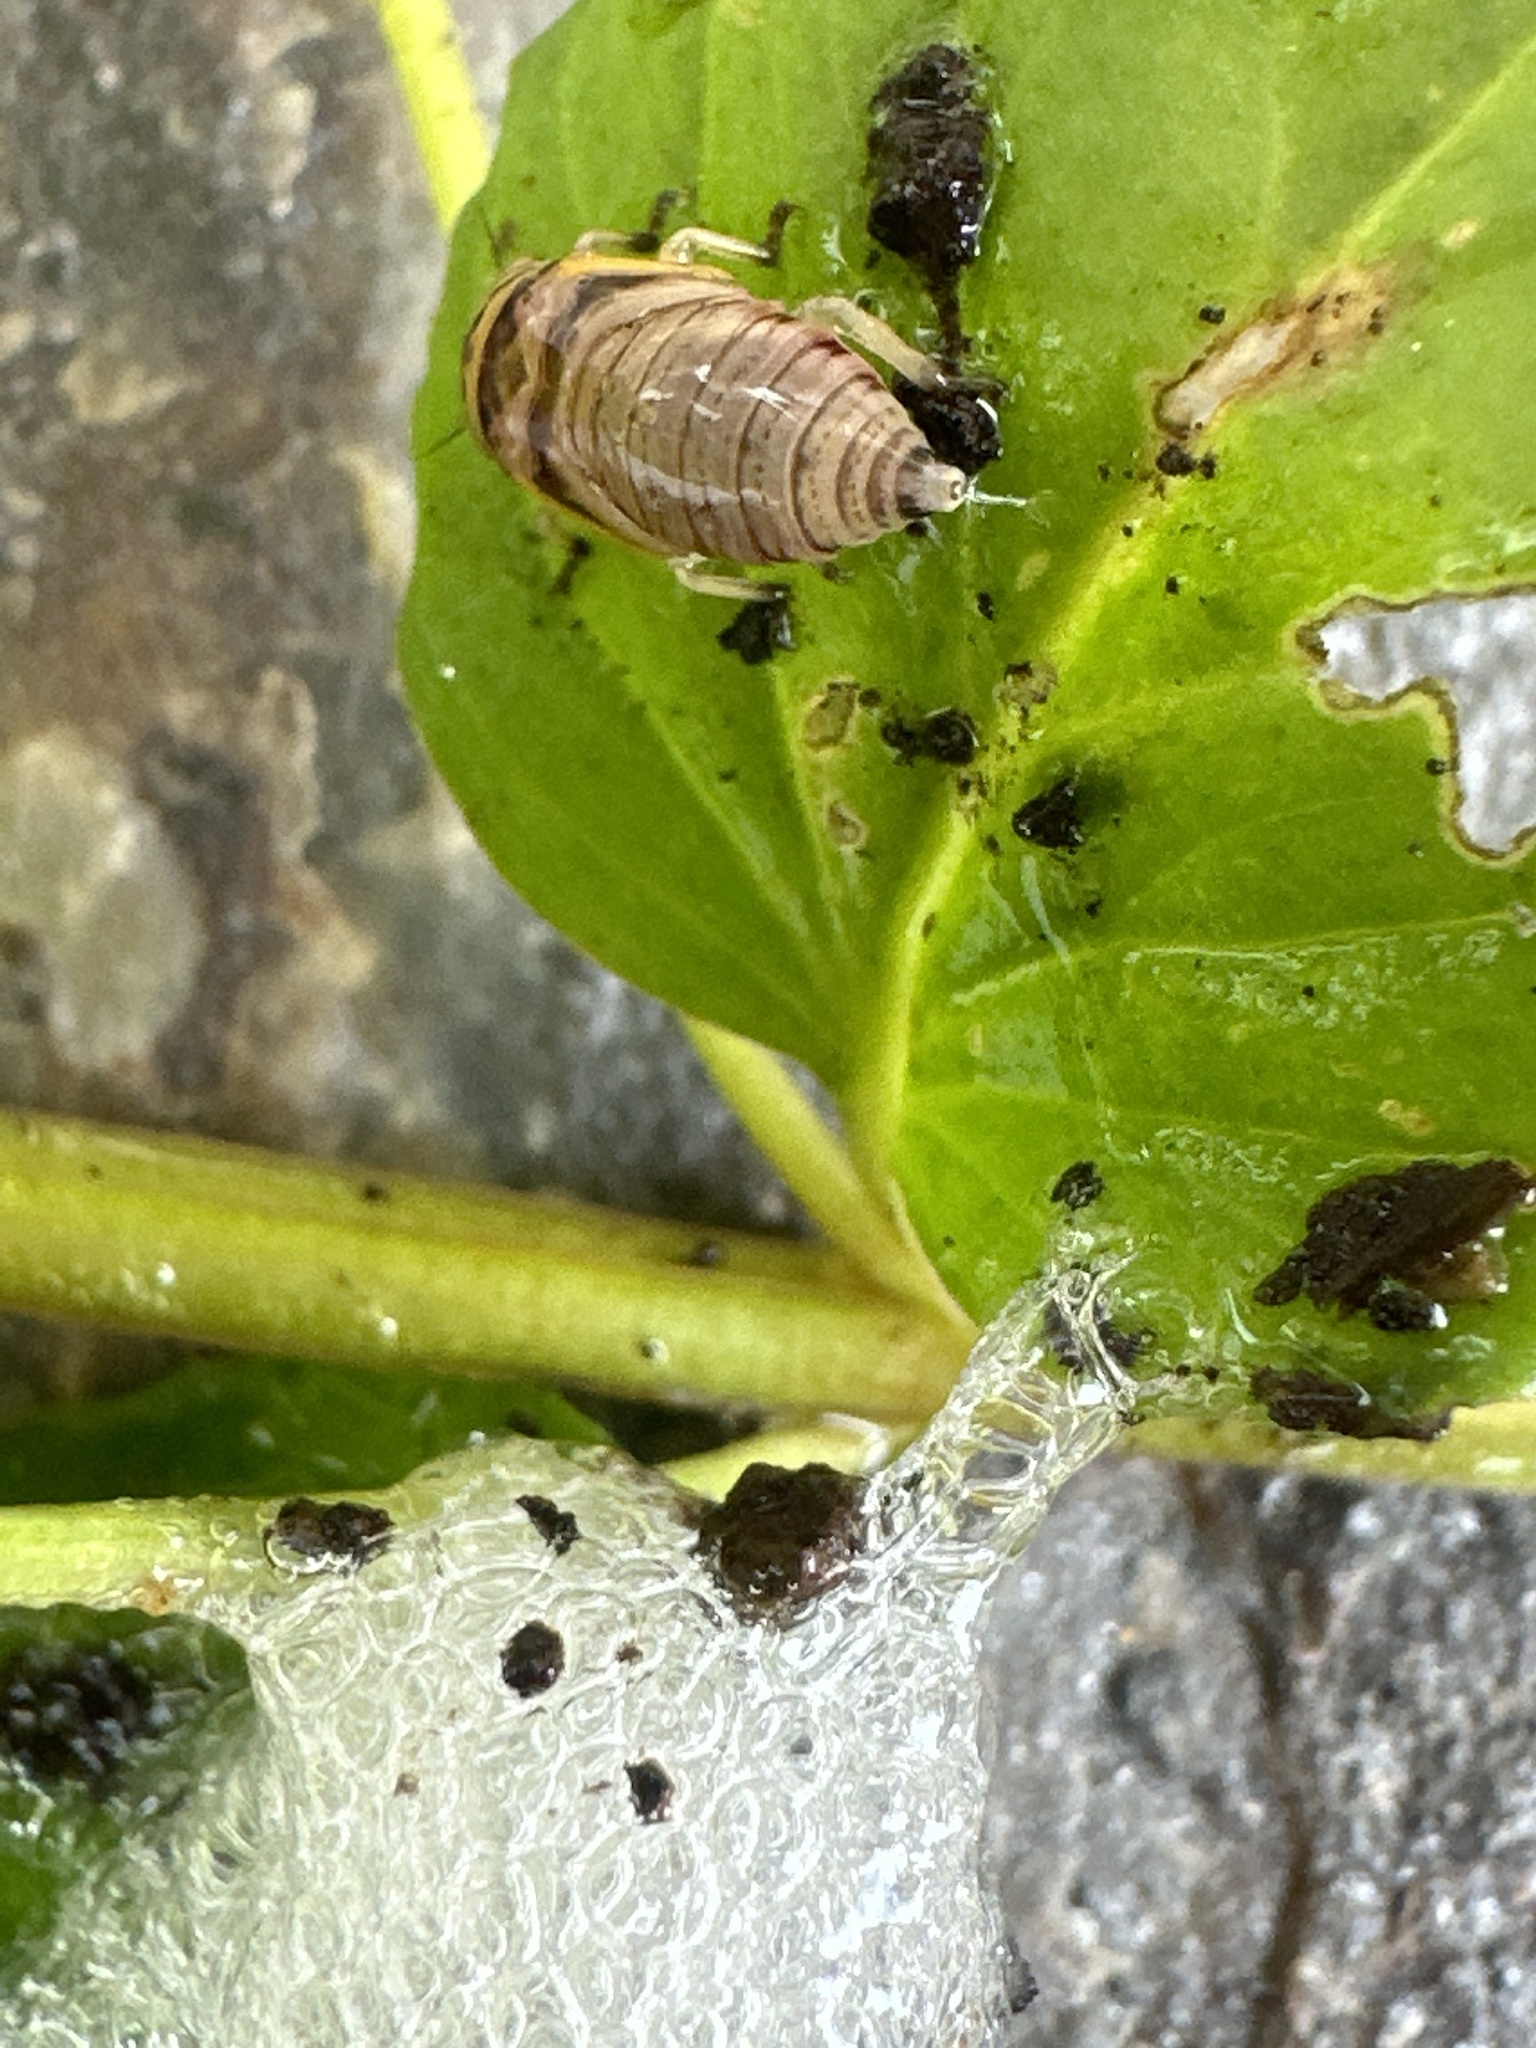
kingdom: Animalia
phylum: Arthropoda
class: Insecta
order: Hemiptera
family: Aphrophoridae
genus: Lepyronia
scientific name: Lepyronia coleoptrata
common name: Leafhopper
